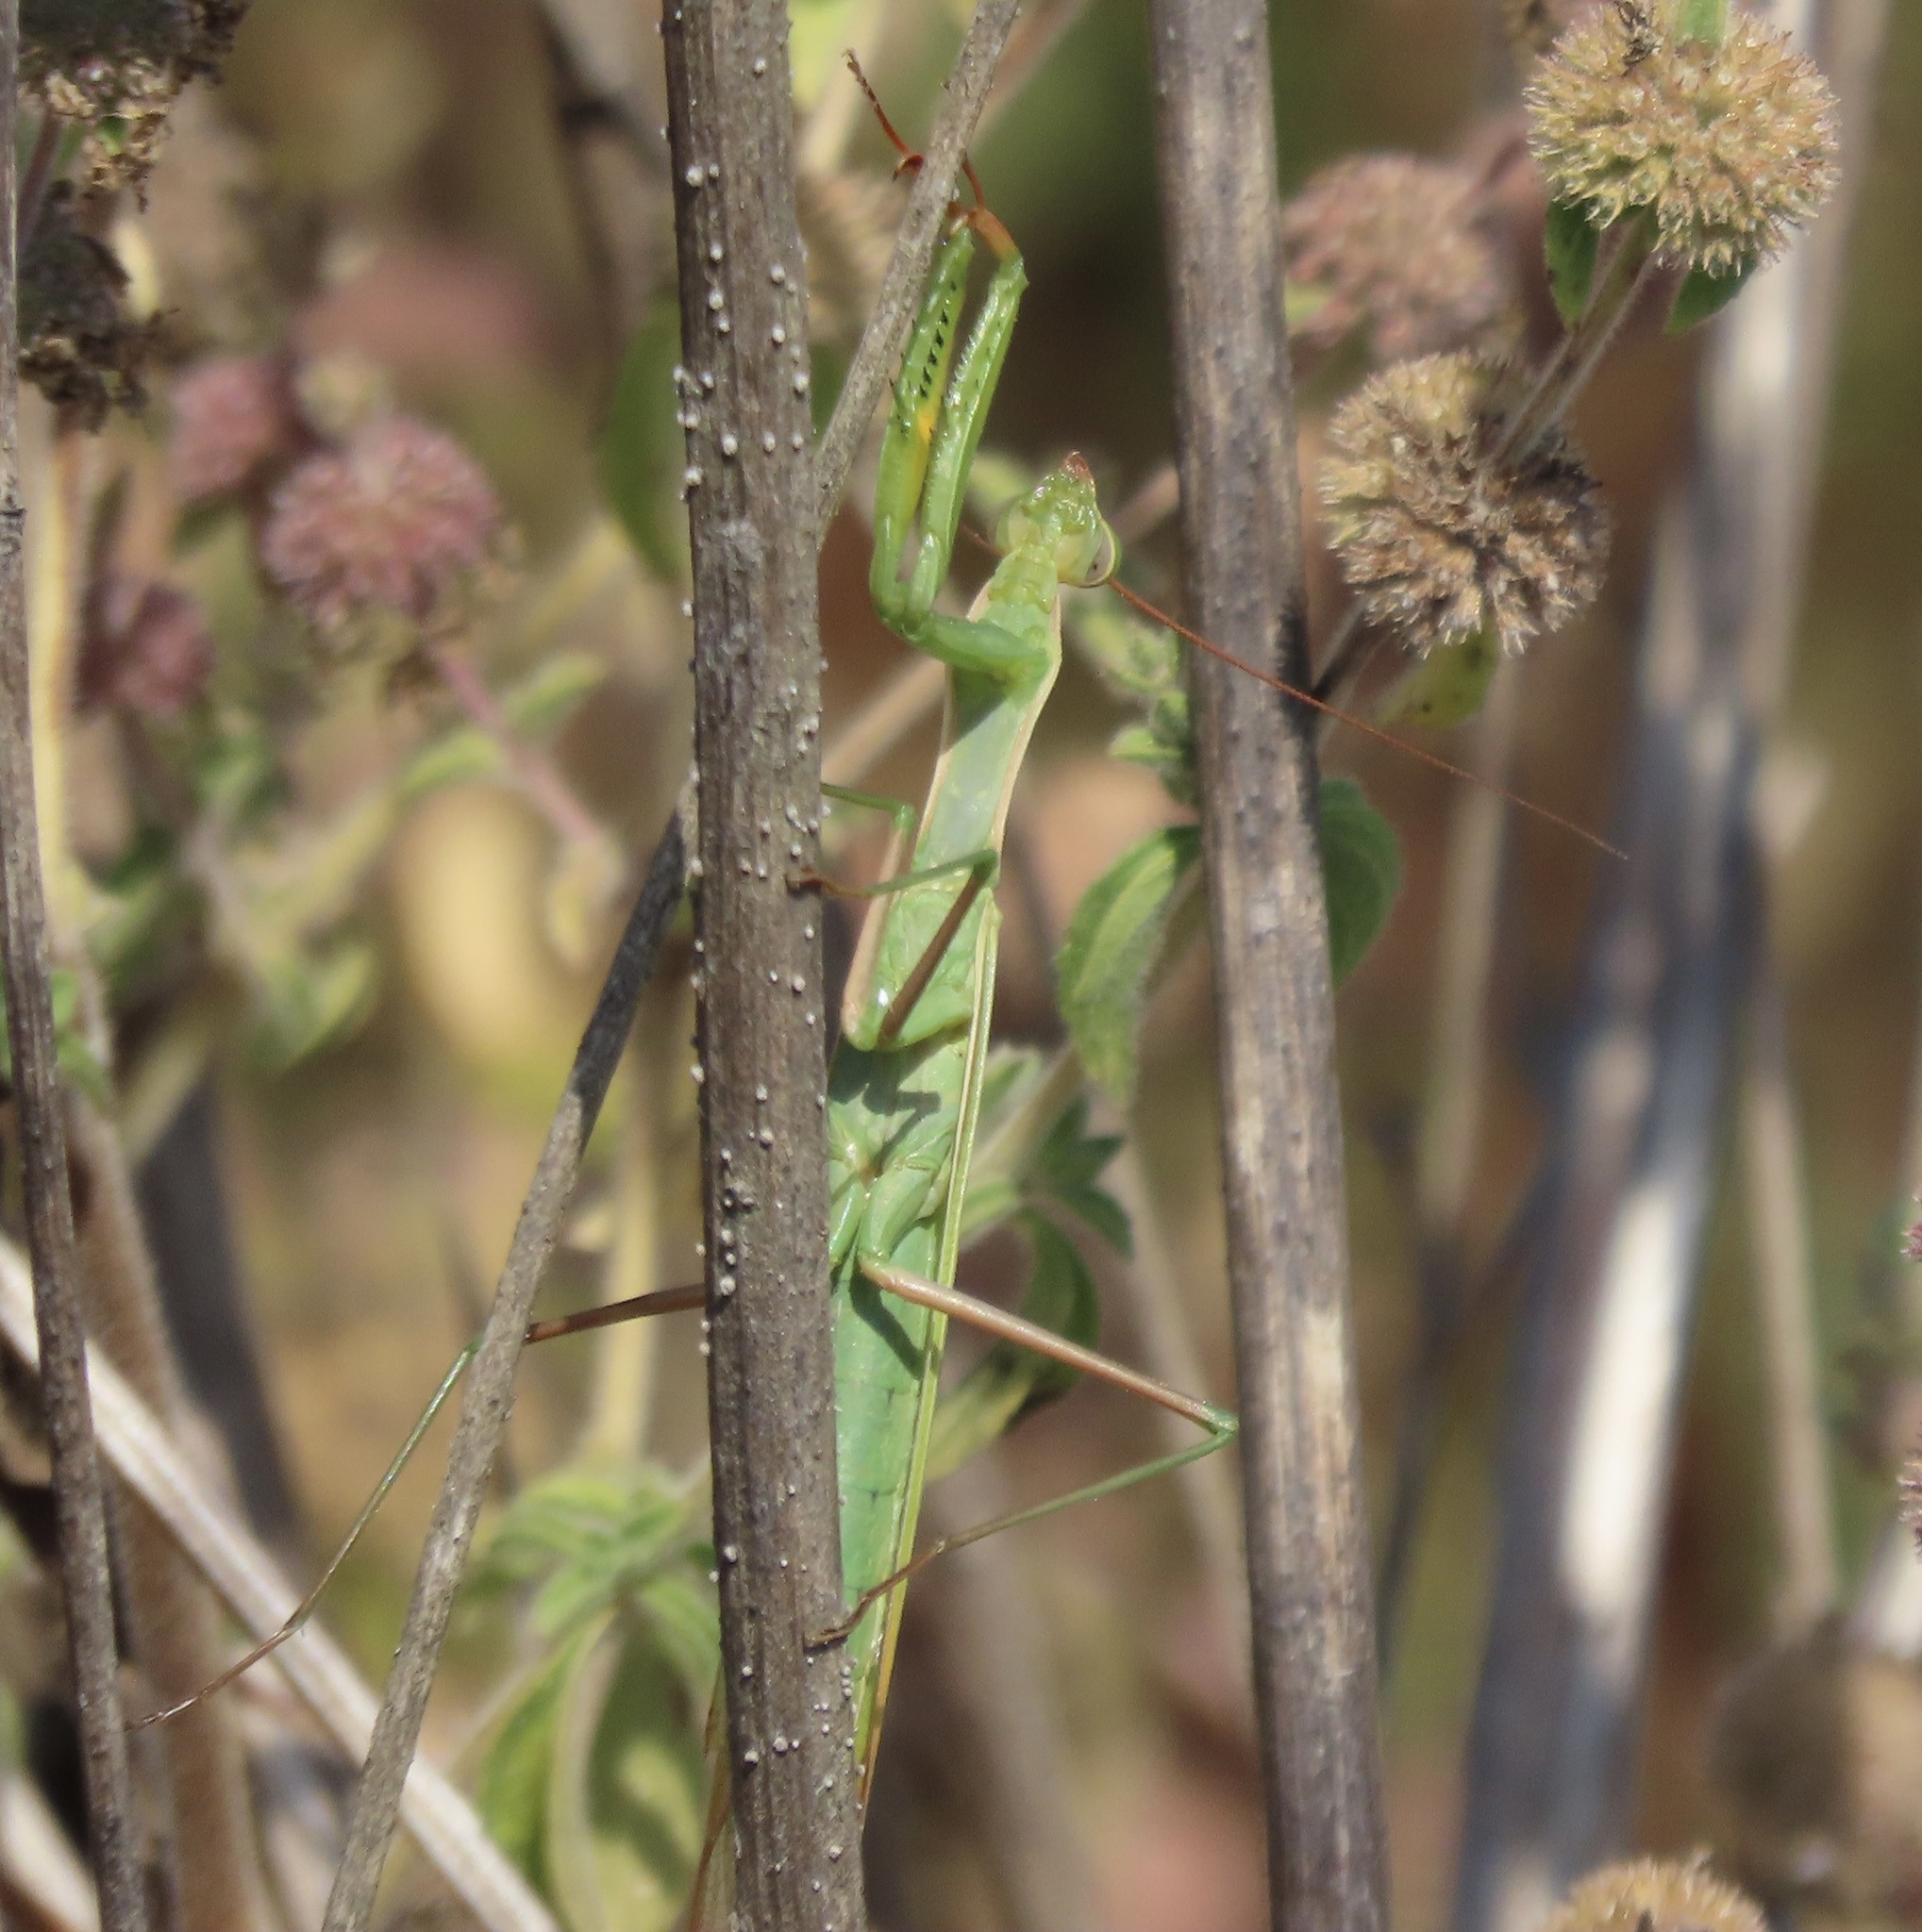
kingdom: Animalia
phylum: Arthropoda
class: Insecta
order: Mantodea
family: Mantidae
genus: Mantis
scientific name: Mantis religiosa
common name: Praying mantis
